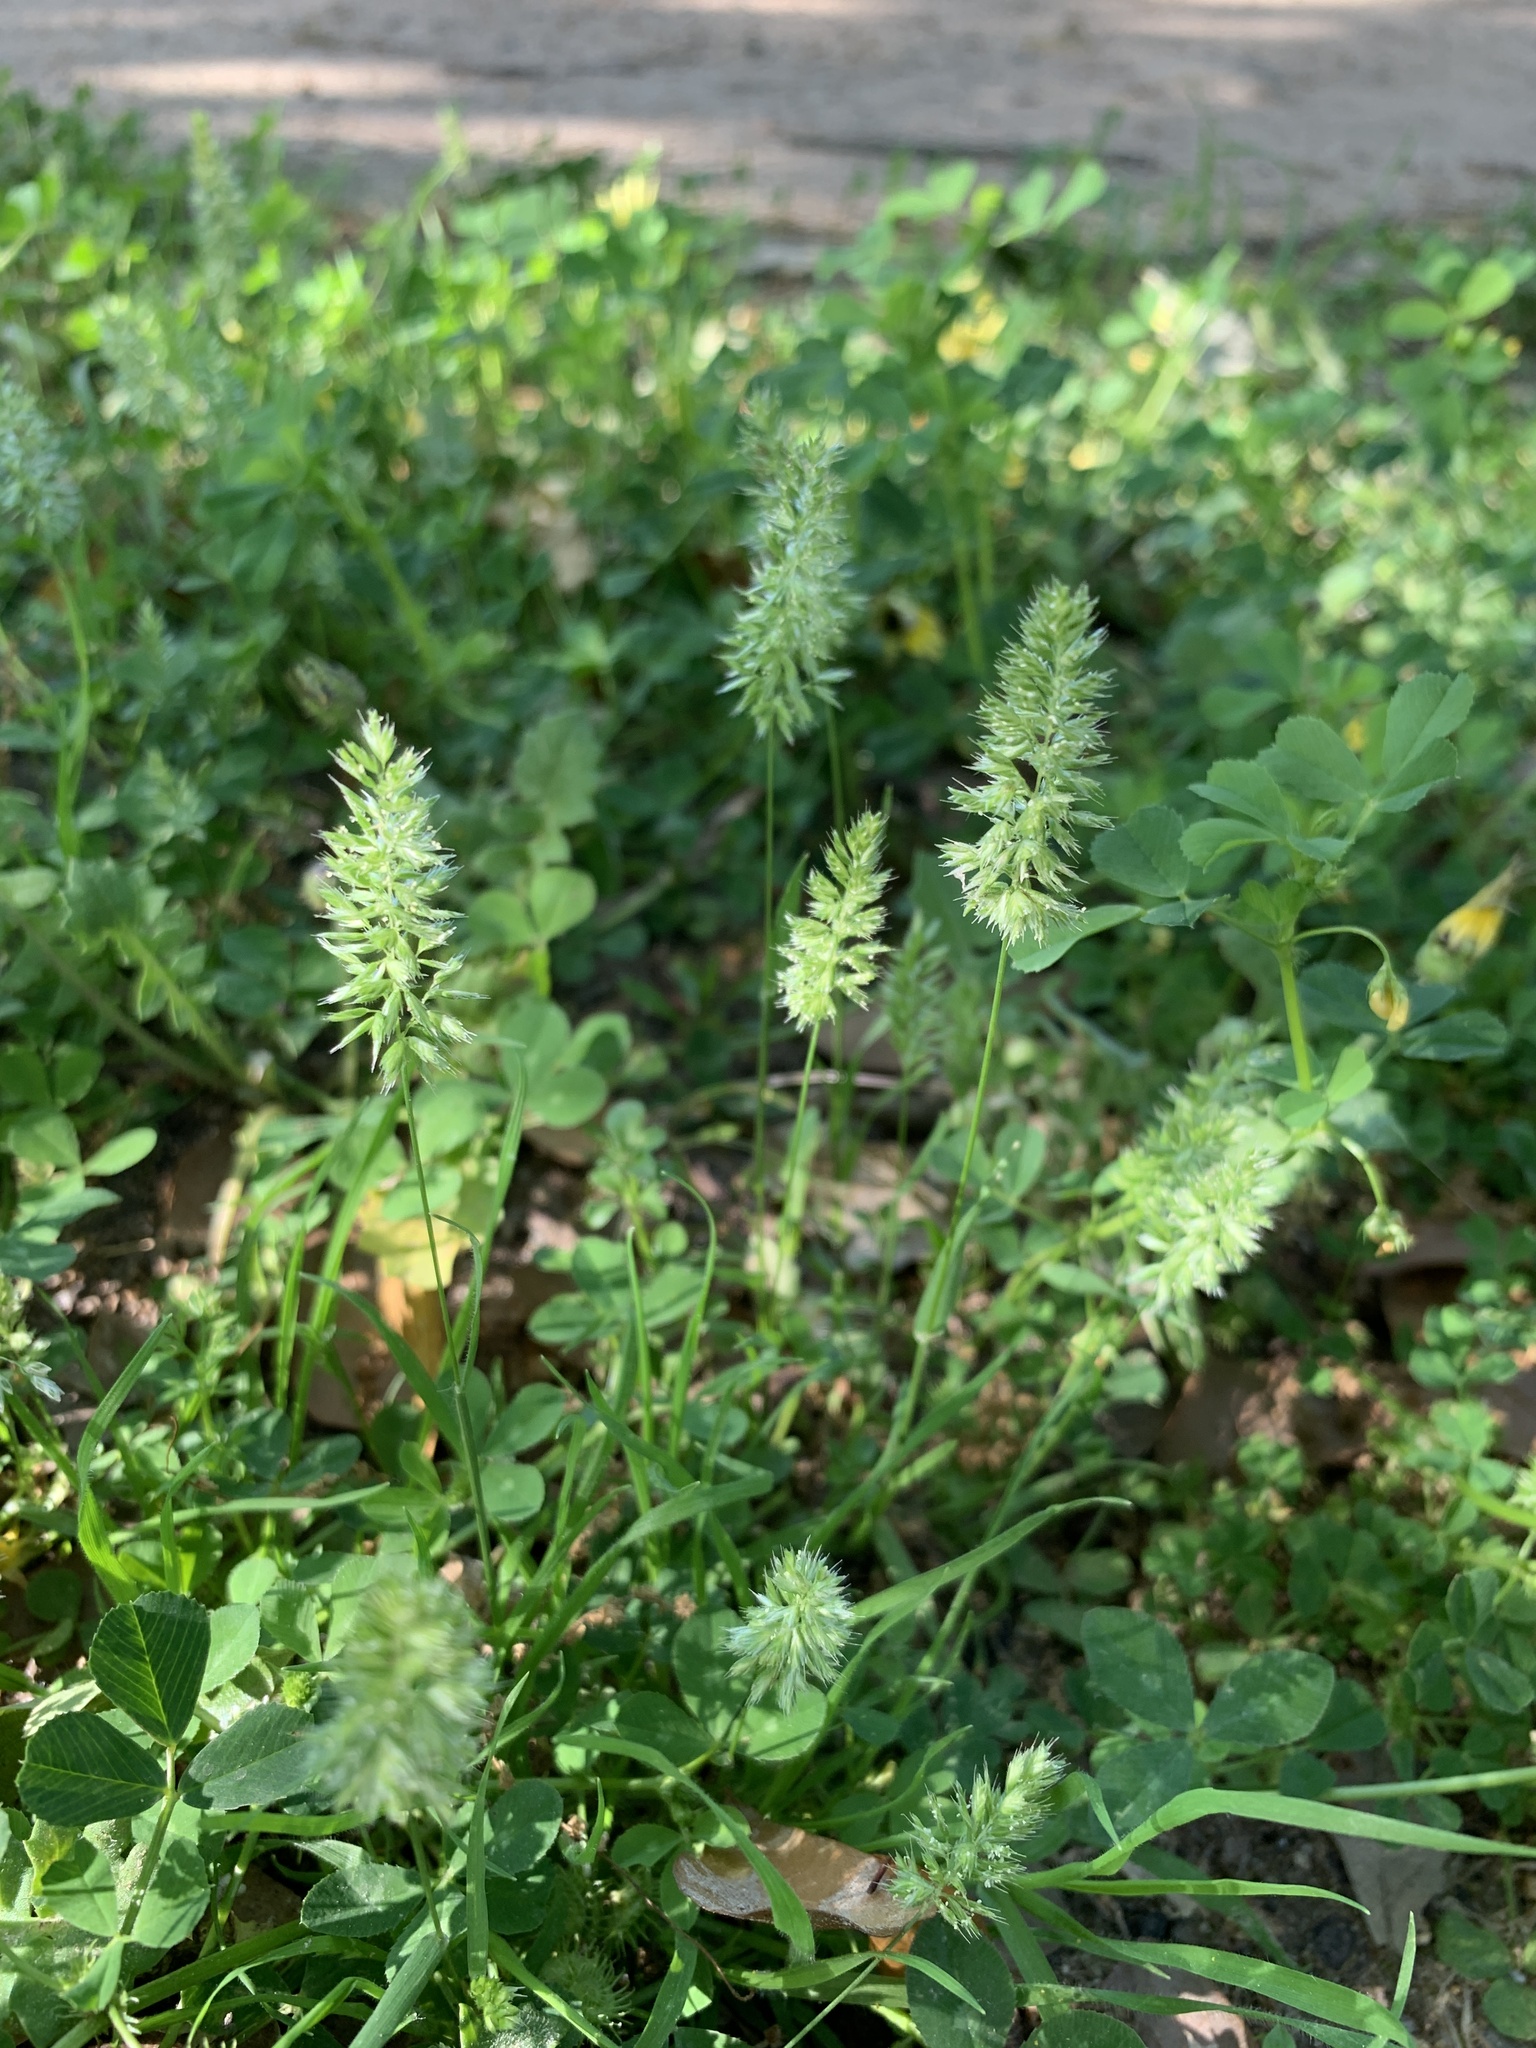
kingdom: Plantae
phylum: Tracheophyta
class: Liliopsida
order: Poales
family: Poaceae
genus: Rostraria
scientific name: Rostraria cristata
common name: Mediterranean hair-grass
